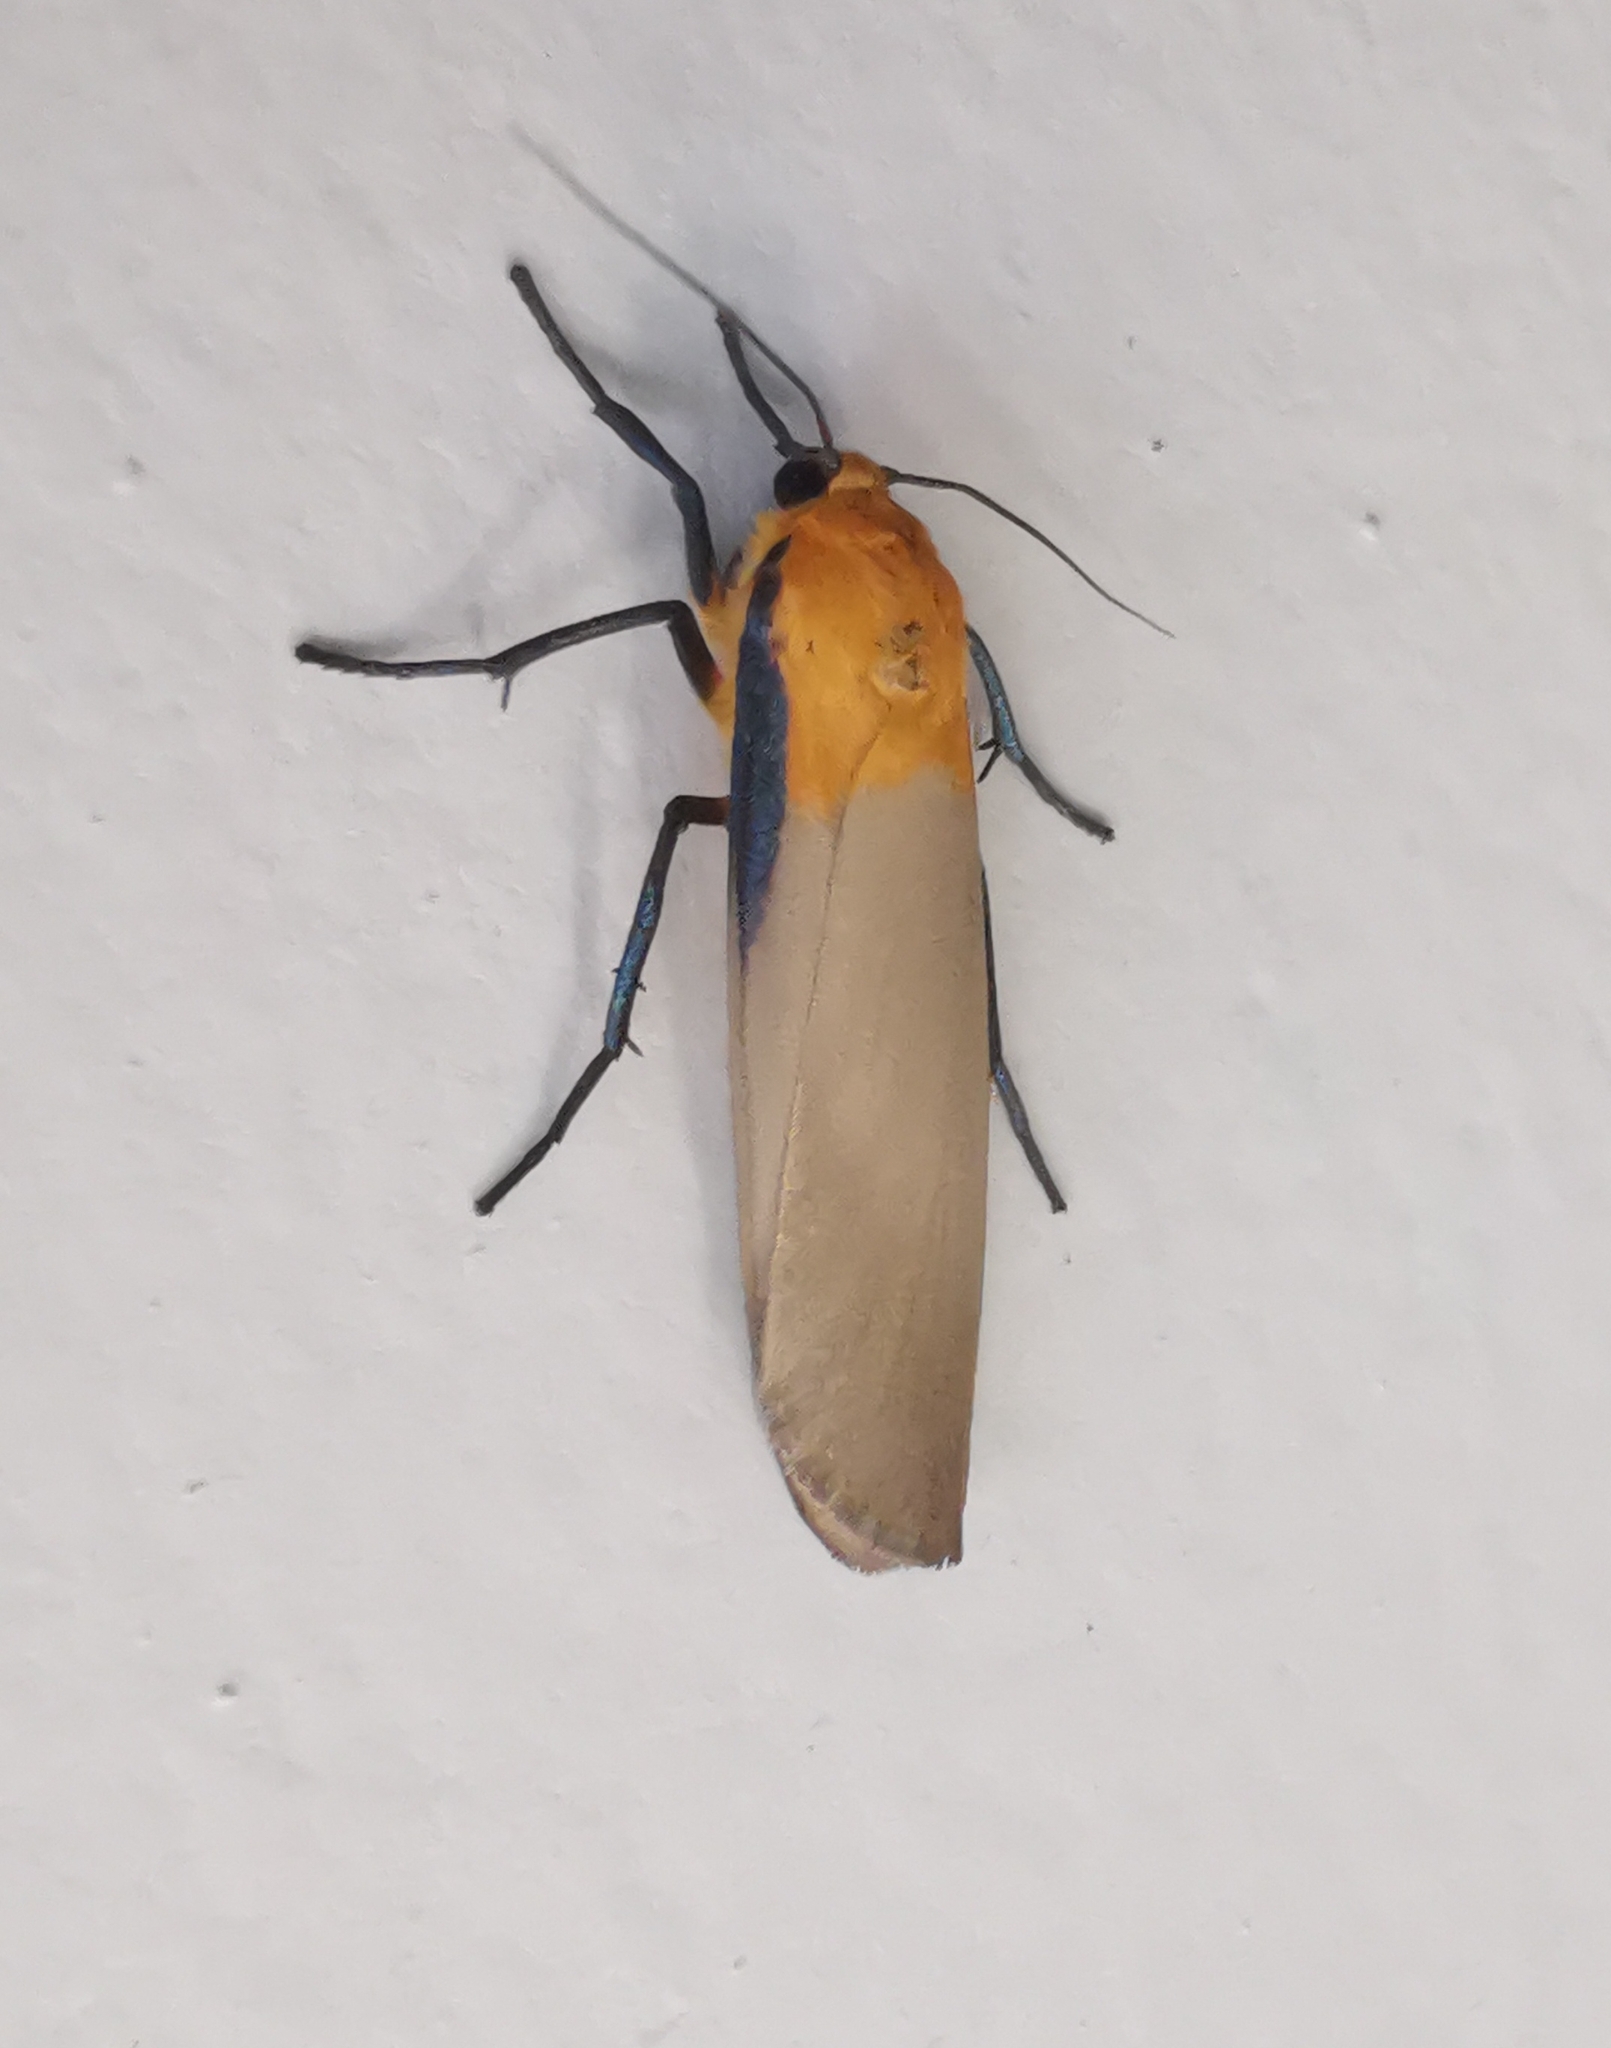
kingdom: Animalia
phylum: Arthropoda
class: Insecta
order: Lepidoptera
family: Erebidae
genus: Lithosia
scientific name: Lithosia quadra
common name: Four-spotted footman
